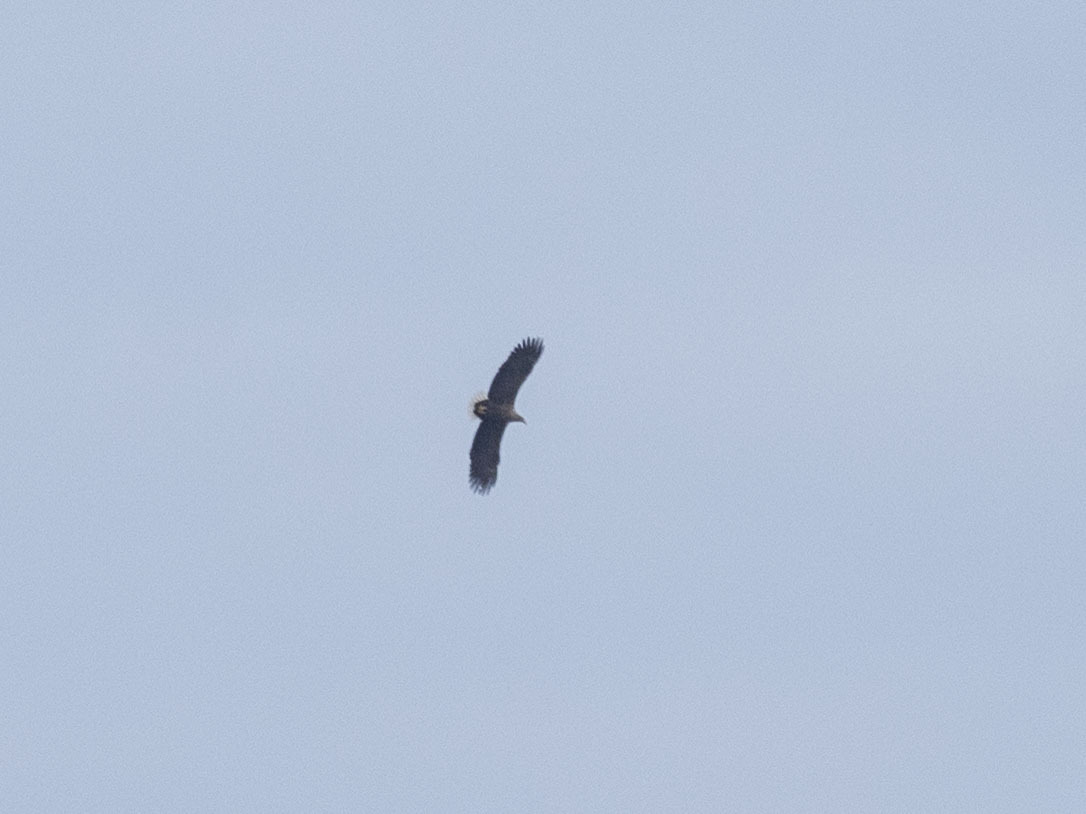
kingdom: Animalia
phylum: Chordata
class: Aves
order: Accipitriformes
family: Accipitridae
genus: Haliaeetus
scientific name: Haliaeetus albicilla
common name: White-tailed eagle
